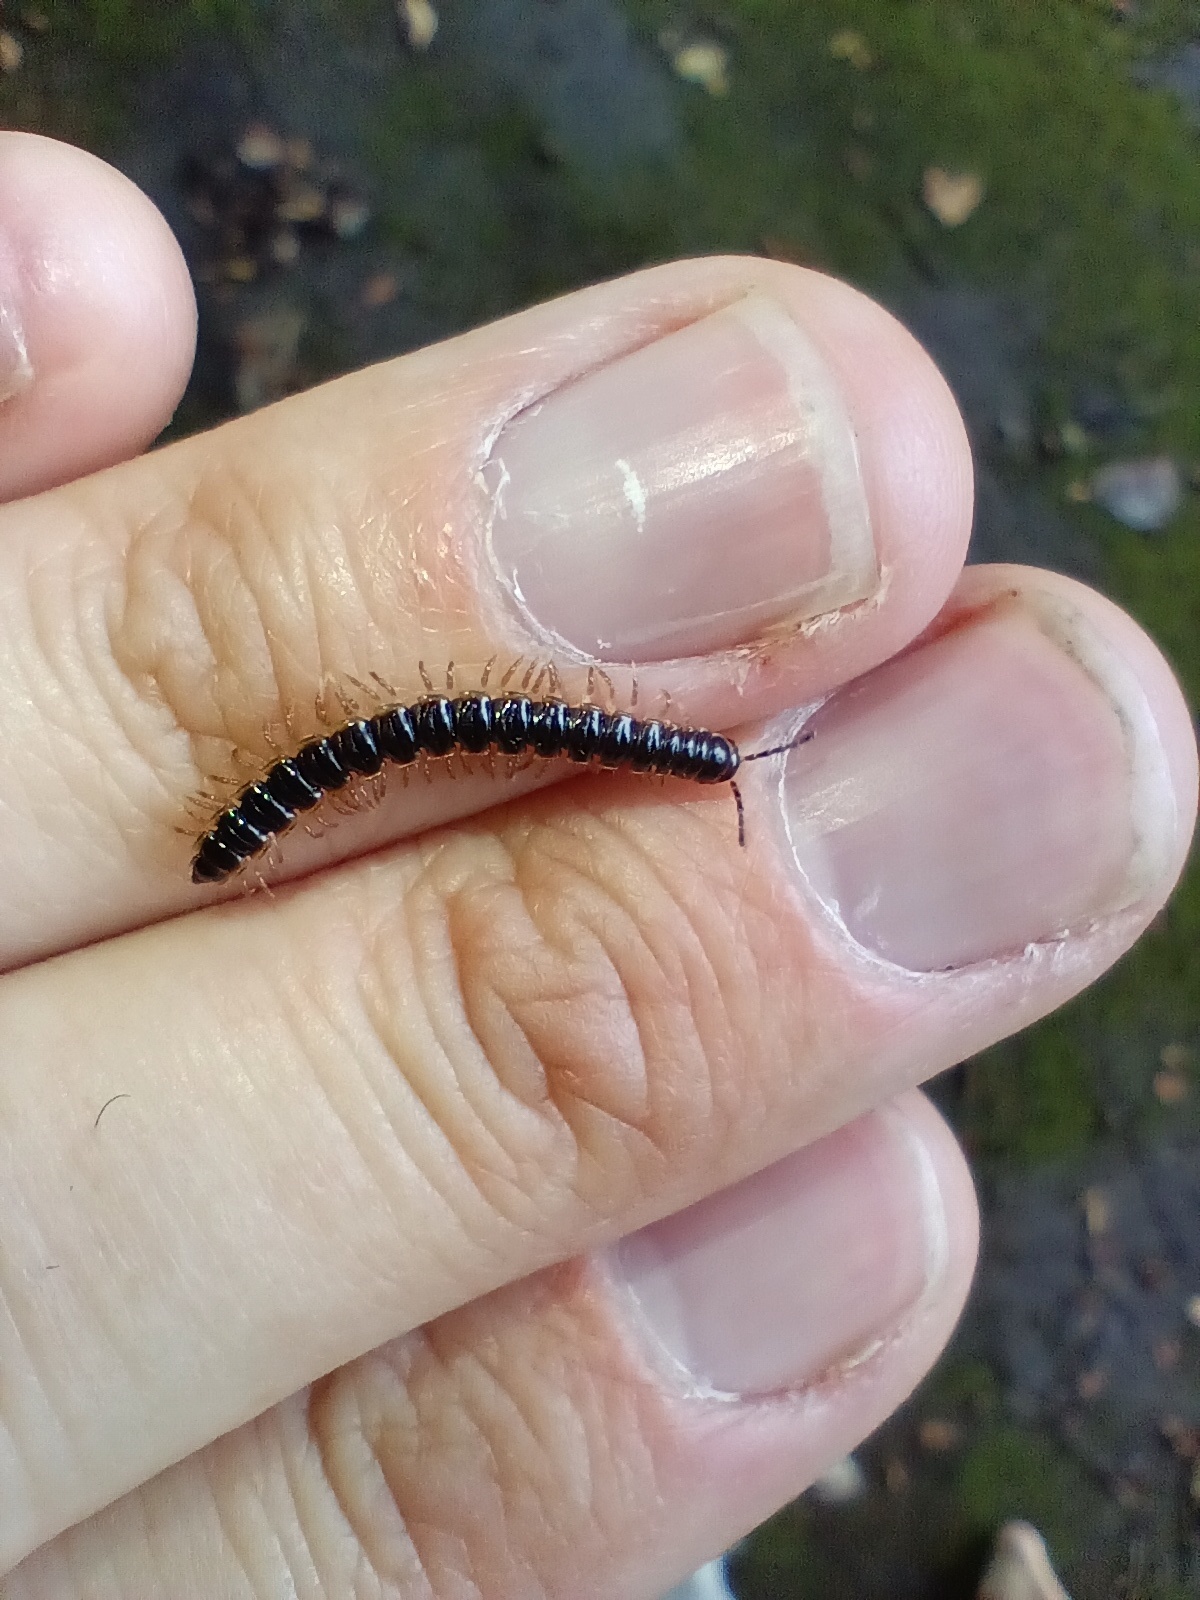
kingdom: Animalia
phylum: Arthropoda
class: Diplopoda
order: Polydesmida
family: Paradoxosomatidae
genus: Oxidus
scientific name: Oxidus gracilis
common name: Greenhouse millipede
